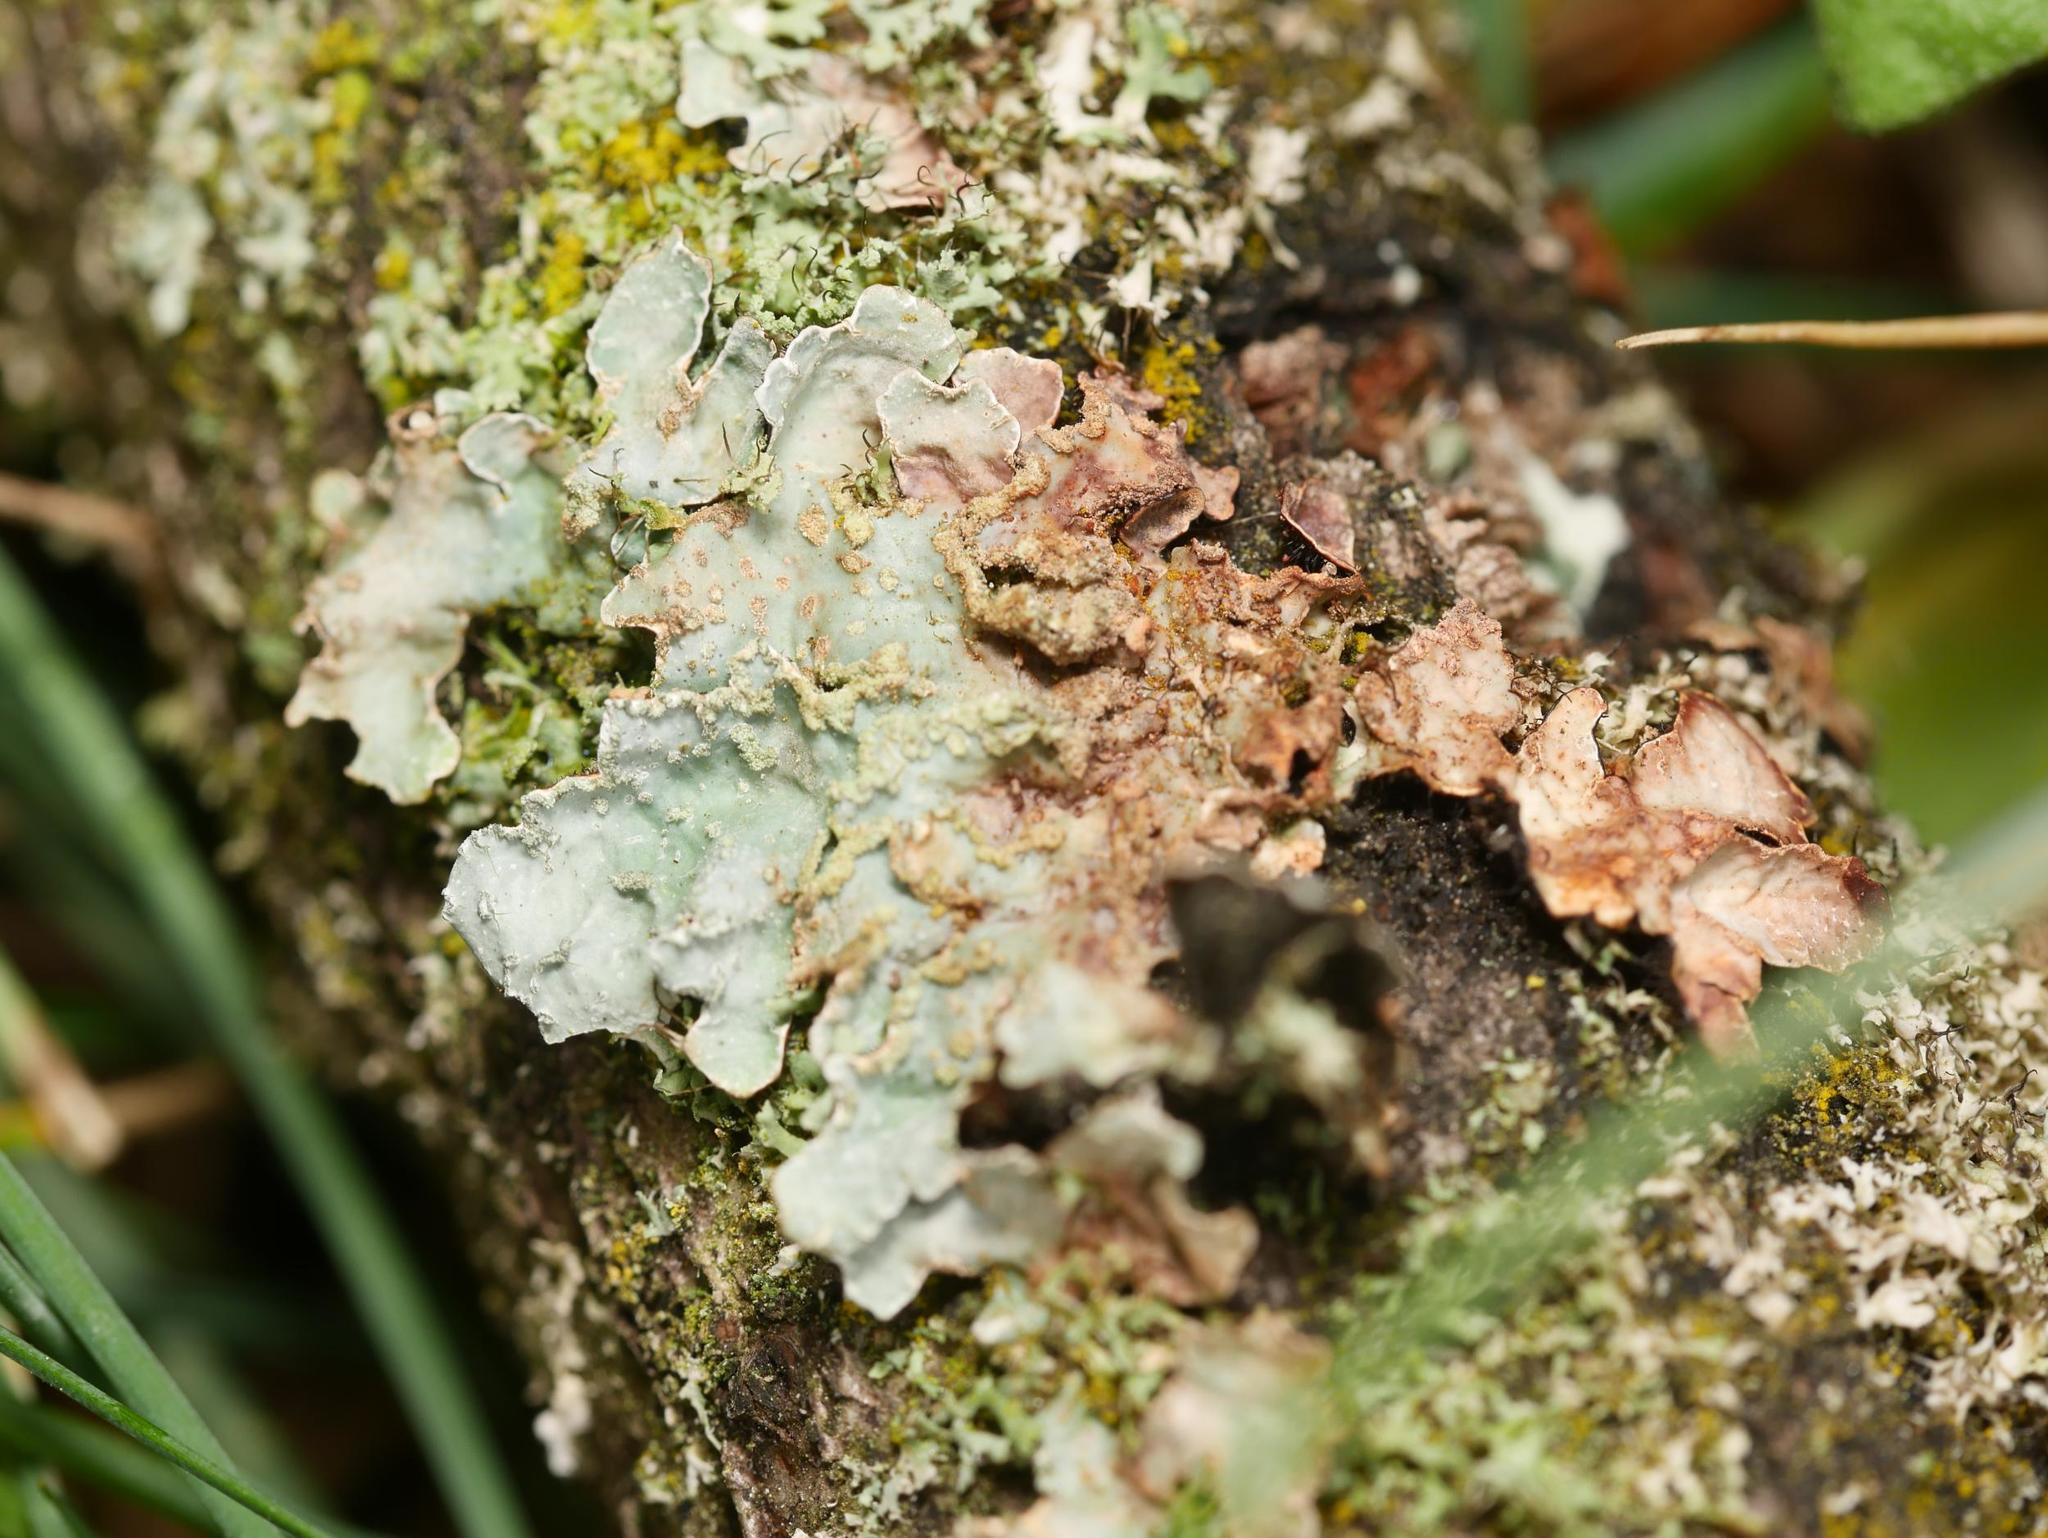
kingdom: Fungi
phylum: Ascomycota
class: Lecanoromycetes
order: Lecanorales
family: Parmeliaceae
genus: Parmelia
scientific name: Parmelia sulcata
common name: Netted shield lichen
